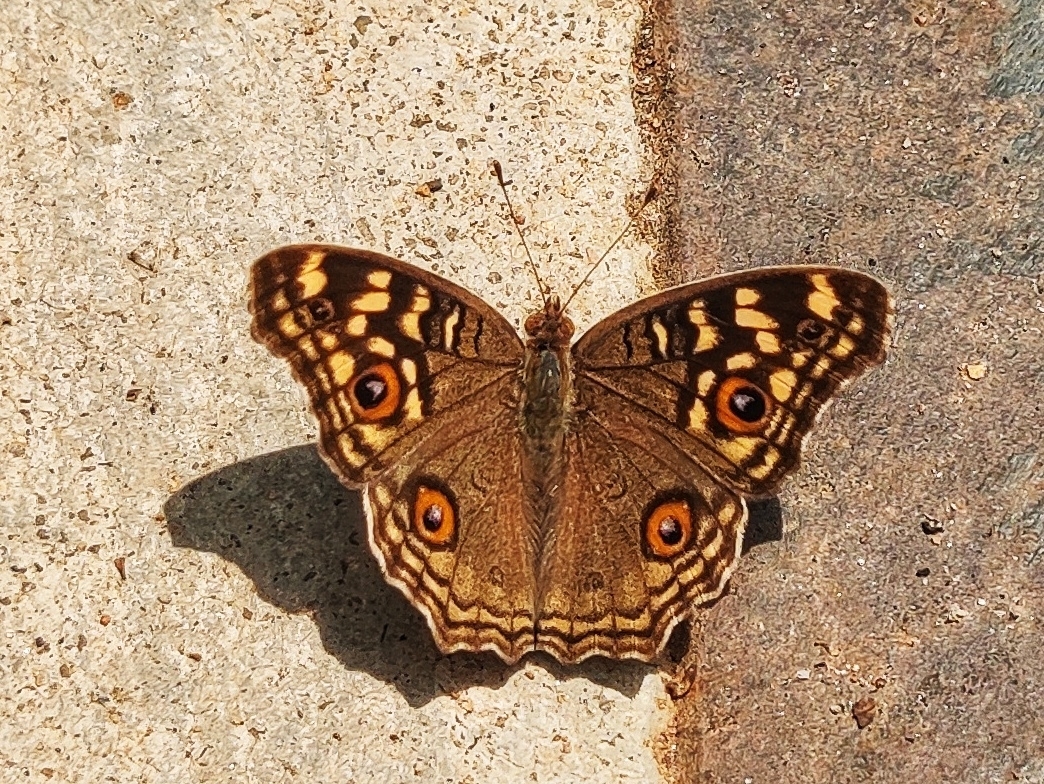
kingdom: Animalia
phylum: Arthropoda
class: Insecta
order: Lepidoptera
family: Nymphalidae
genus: Junonia
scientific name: Junonia lemonias
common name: Lemon pansy
